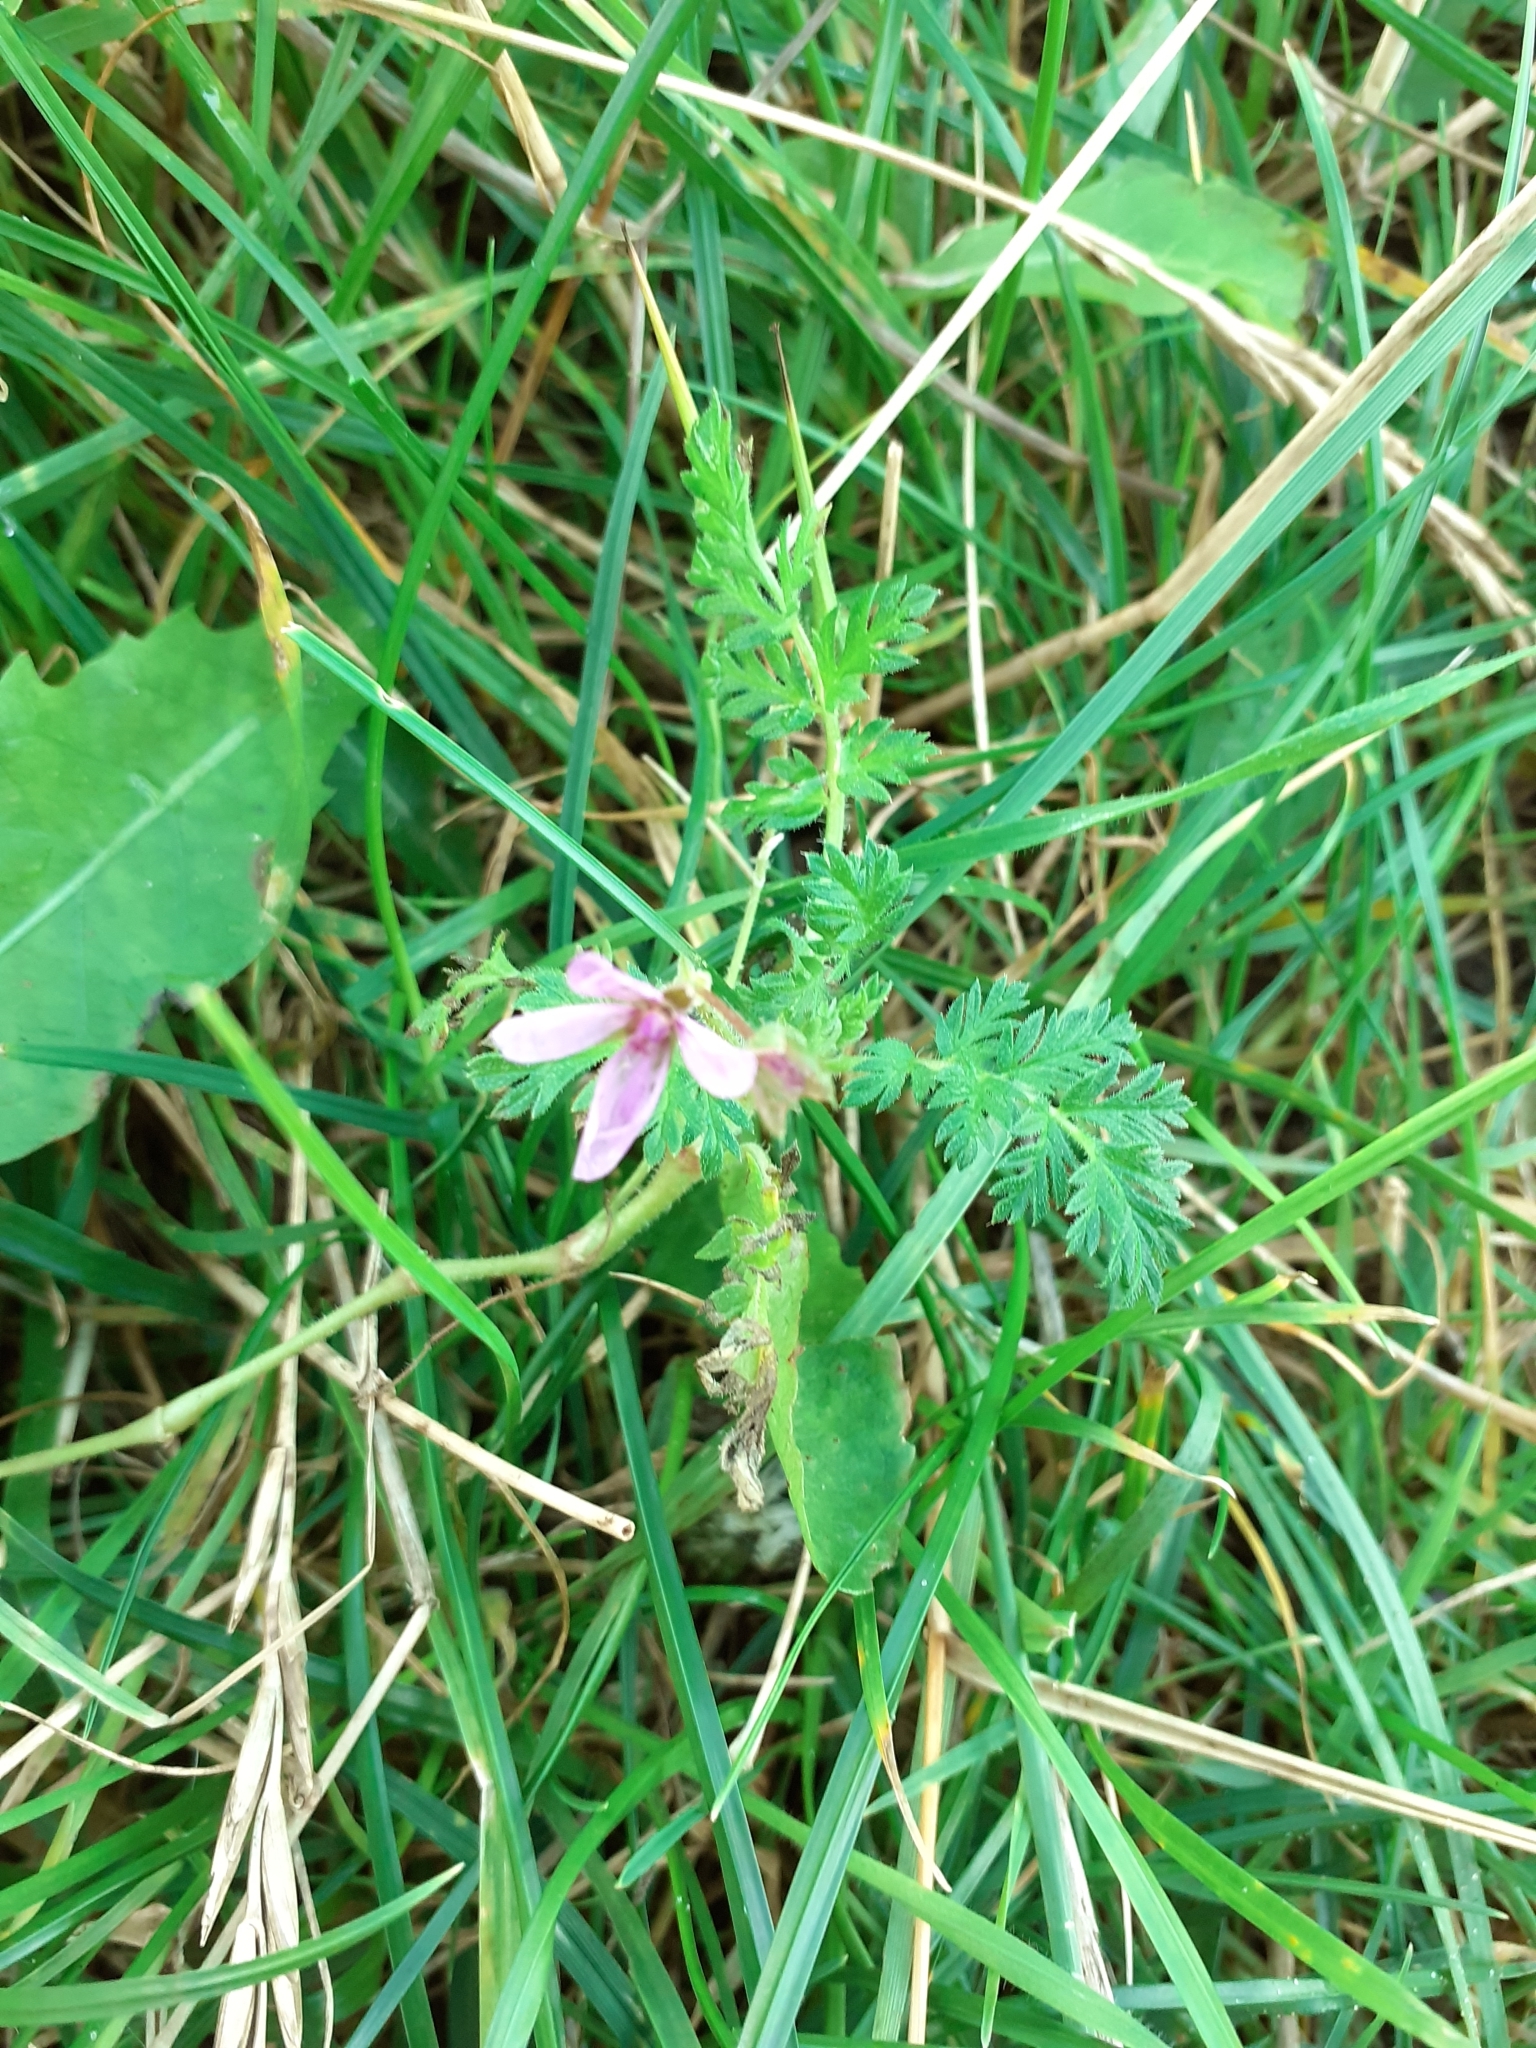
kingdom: Plantae
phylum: Tracheophyta
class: Magnoliopsida
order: Geraniales
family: Geraniaceae
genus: Erodium
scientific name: Erodium cicutarium
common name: Common stork's-bill
